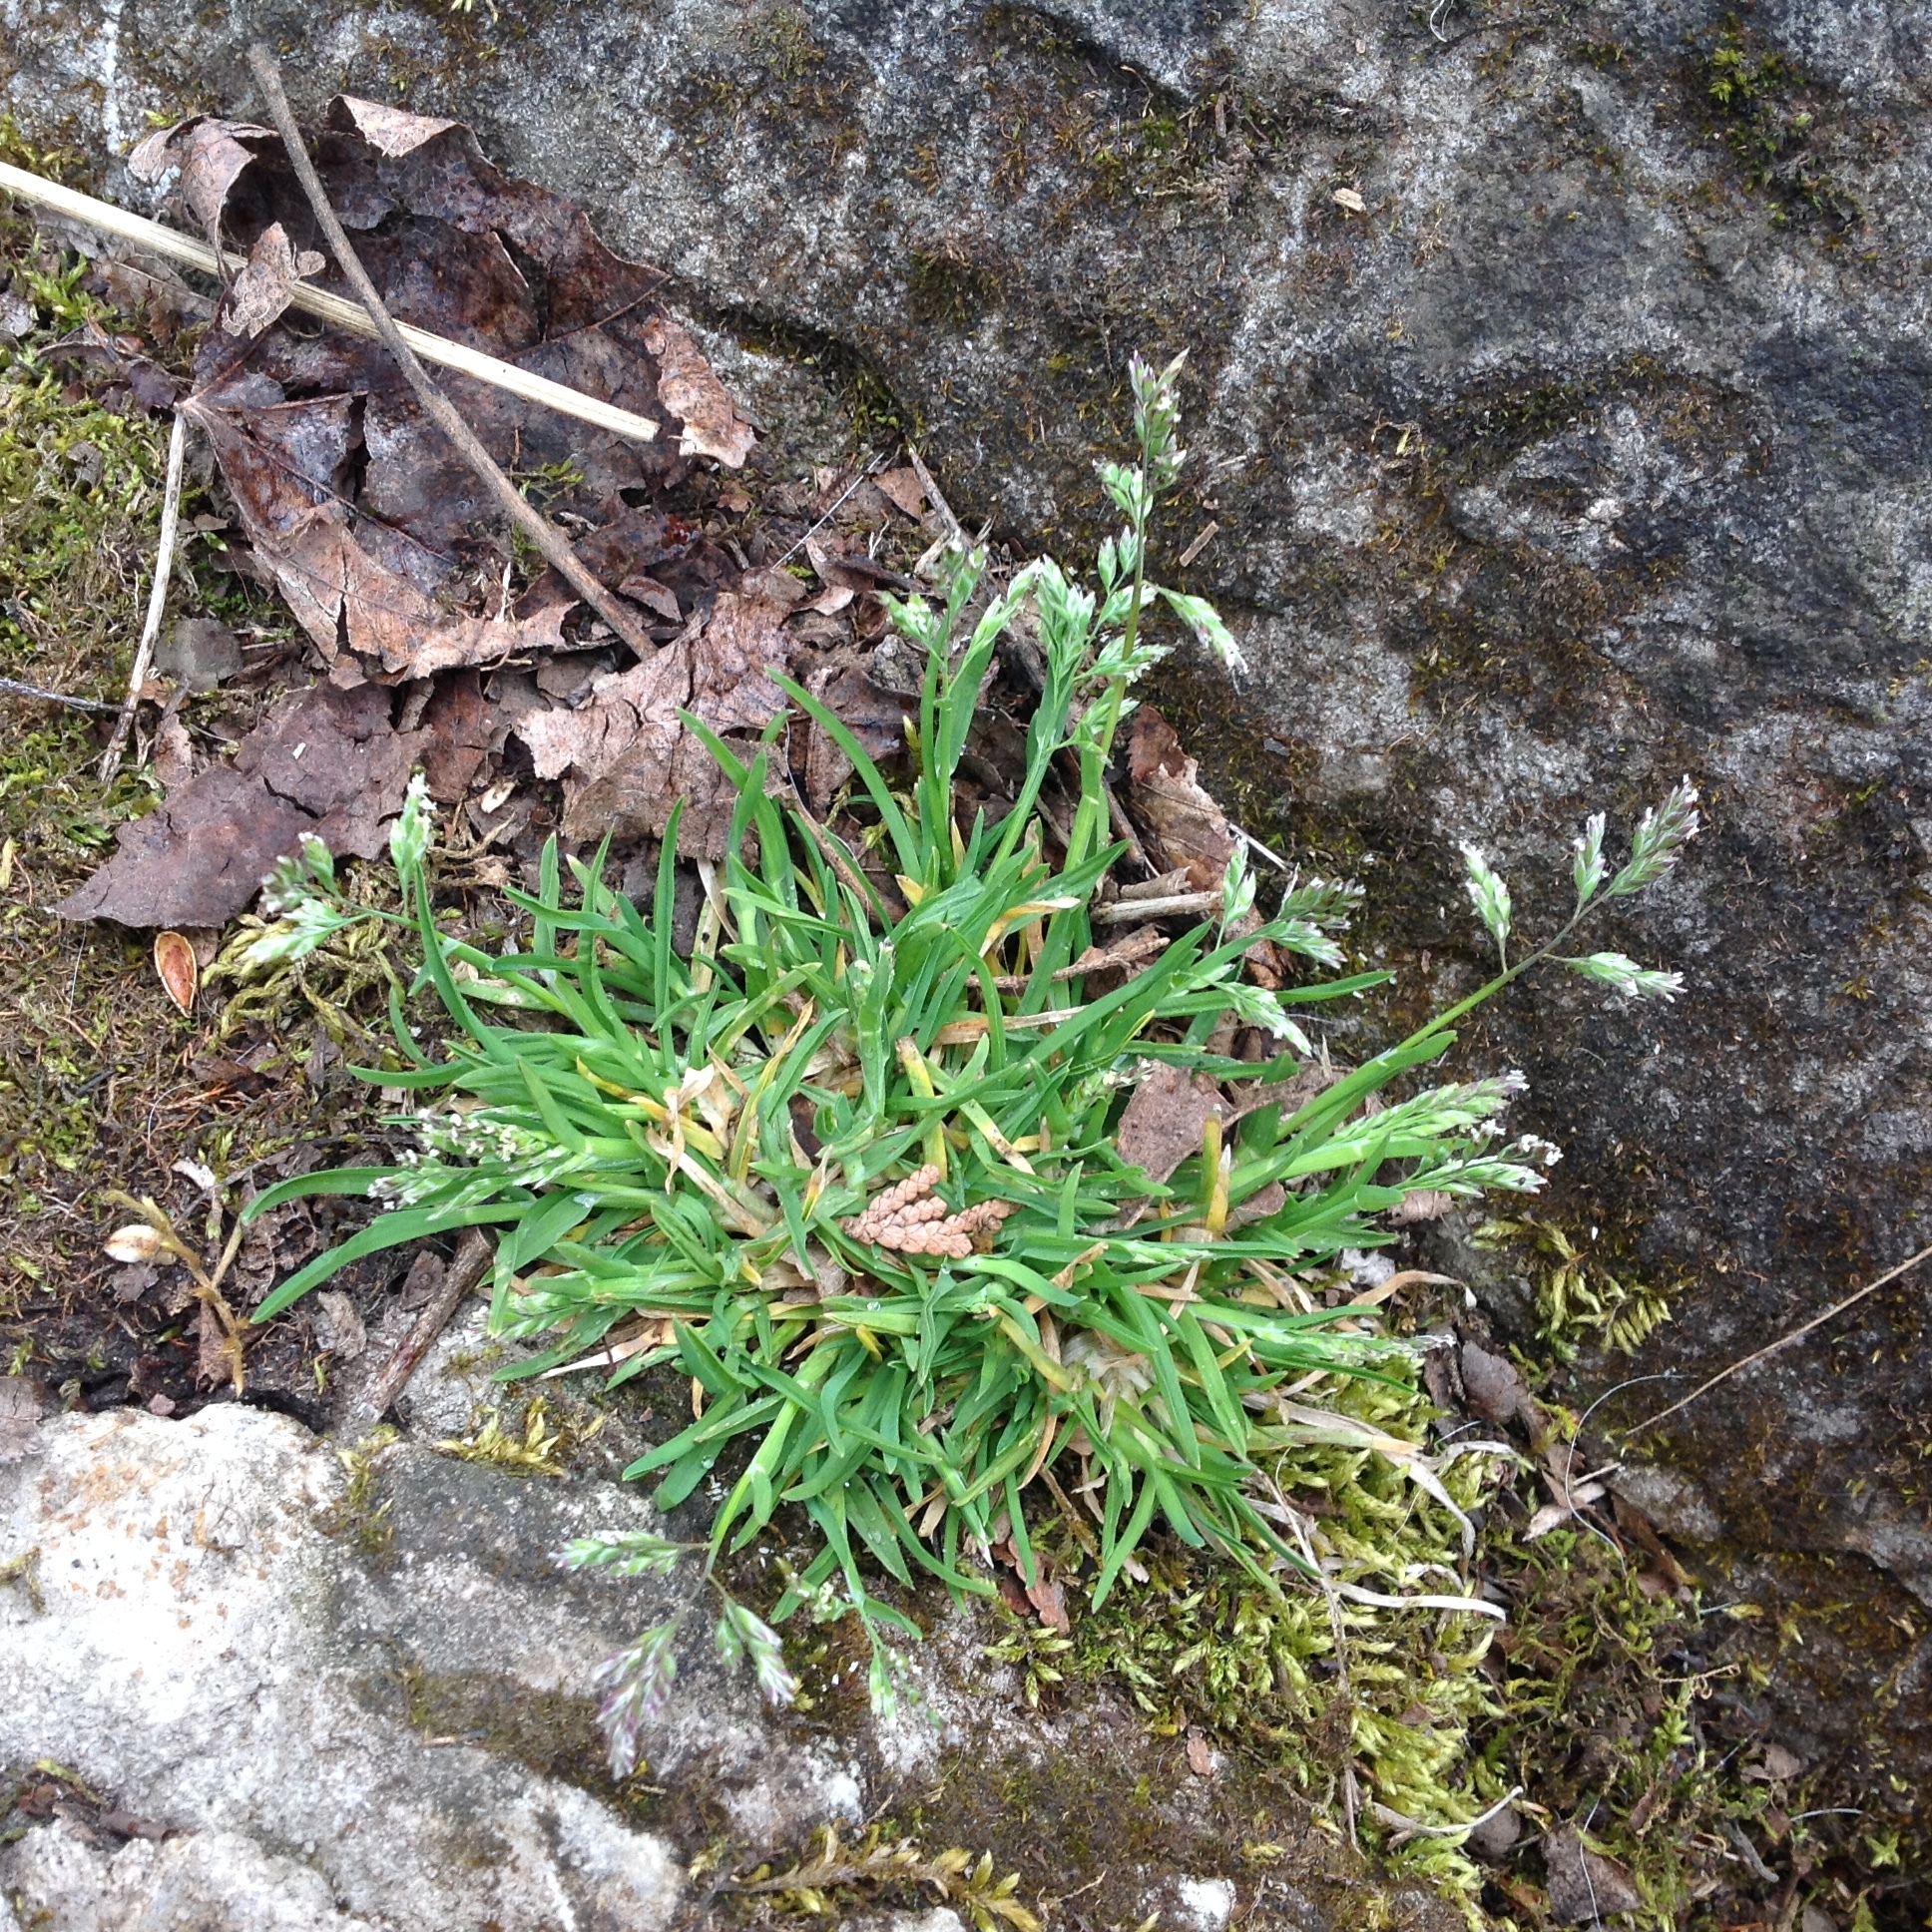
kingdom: Plantae
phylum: Tracheophyta
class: Liliopsida
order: Poales
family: Poaceae
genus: Poa
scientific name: Poa annua
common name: Annual bluegrass
